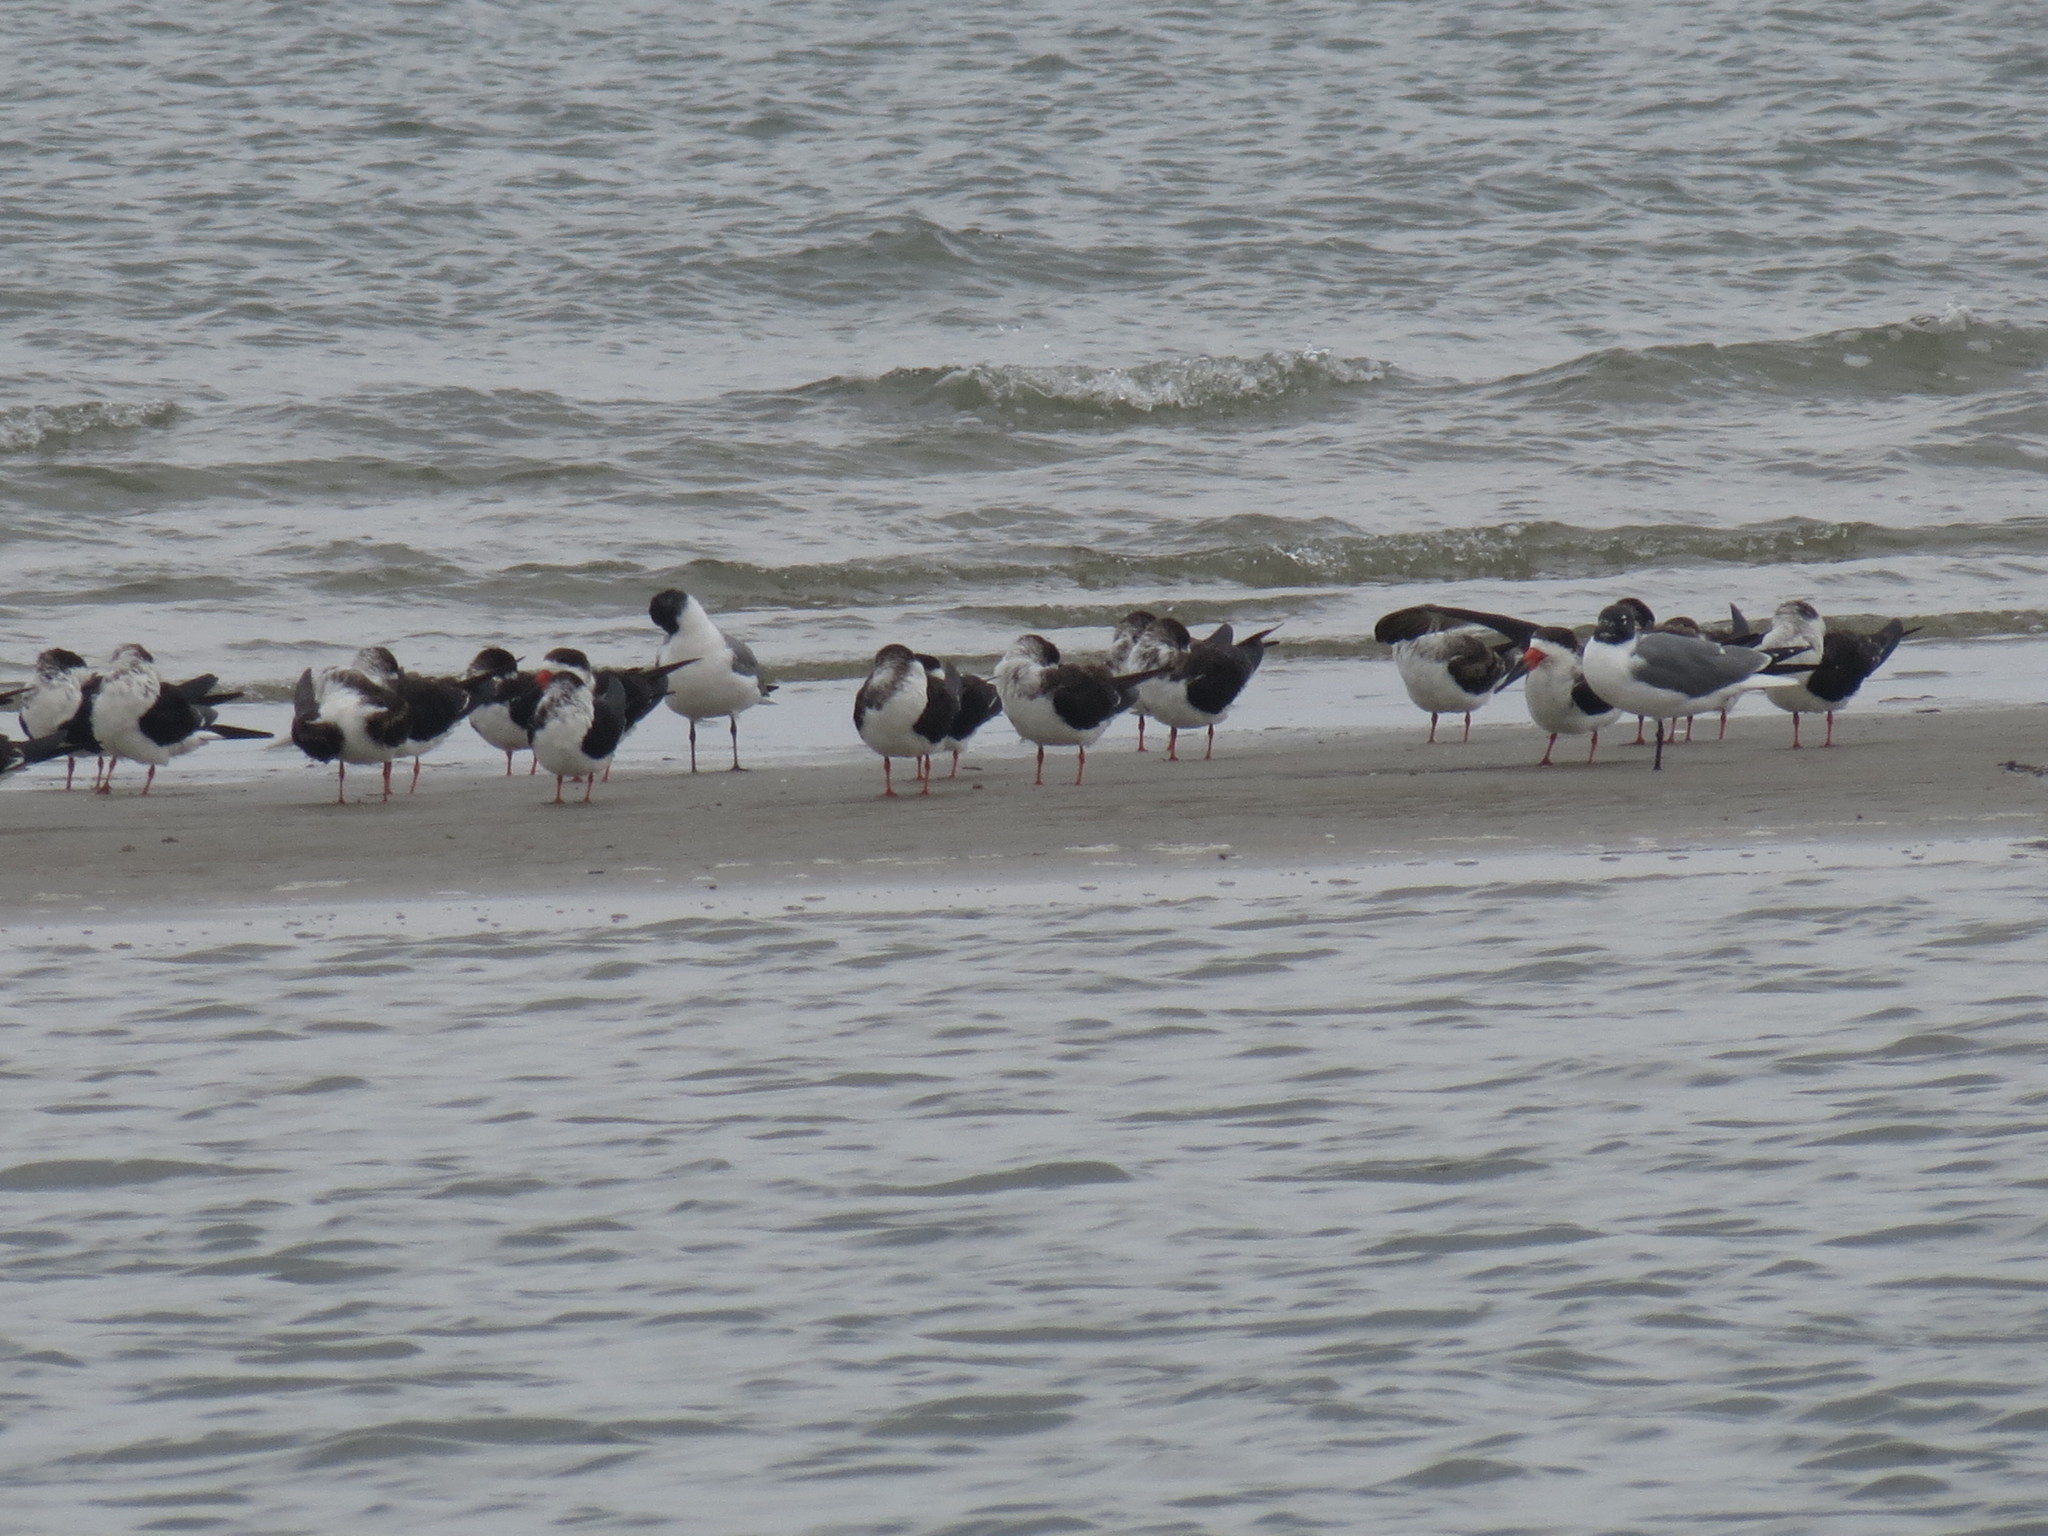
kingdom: Animalia
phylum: Chordata
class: Aves
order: Charadriiformes
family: Laridae
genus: Rynchops
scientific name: Rynchops niger
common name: Black skimmer
